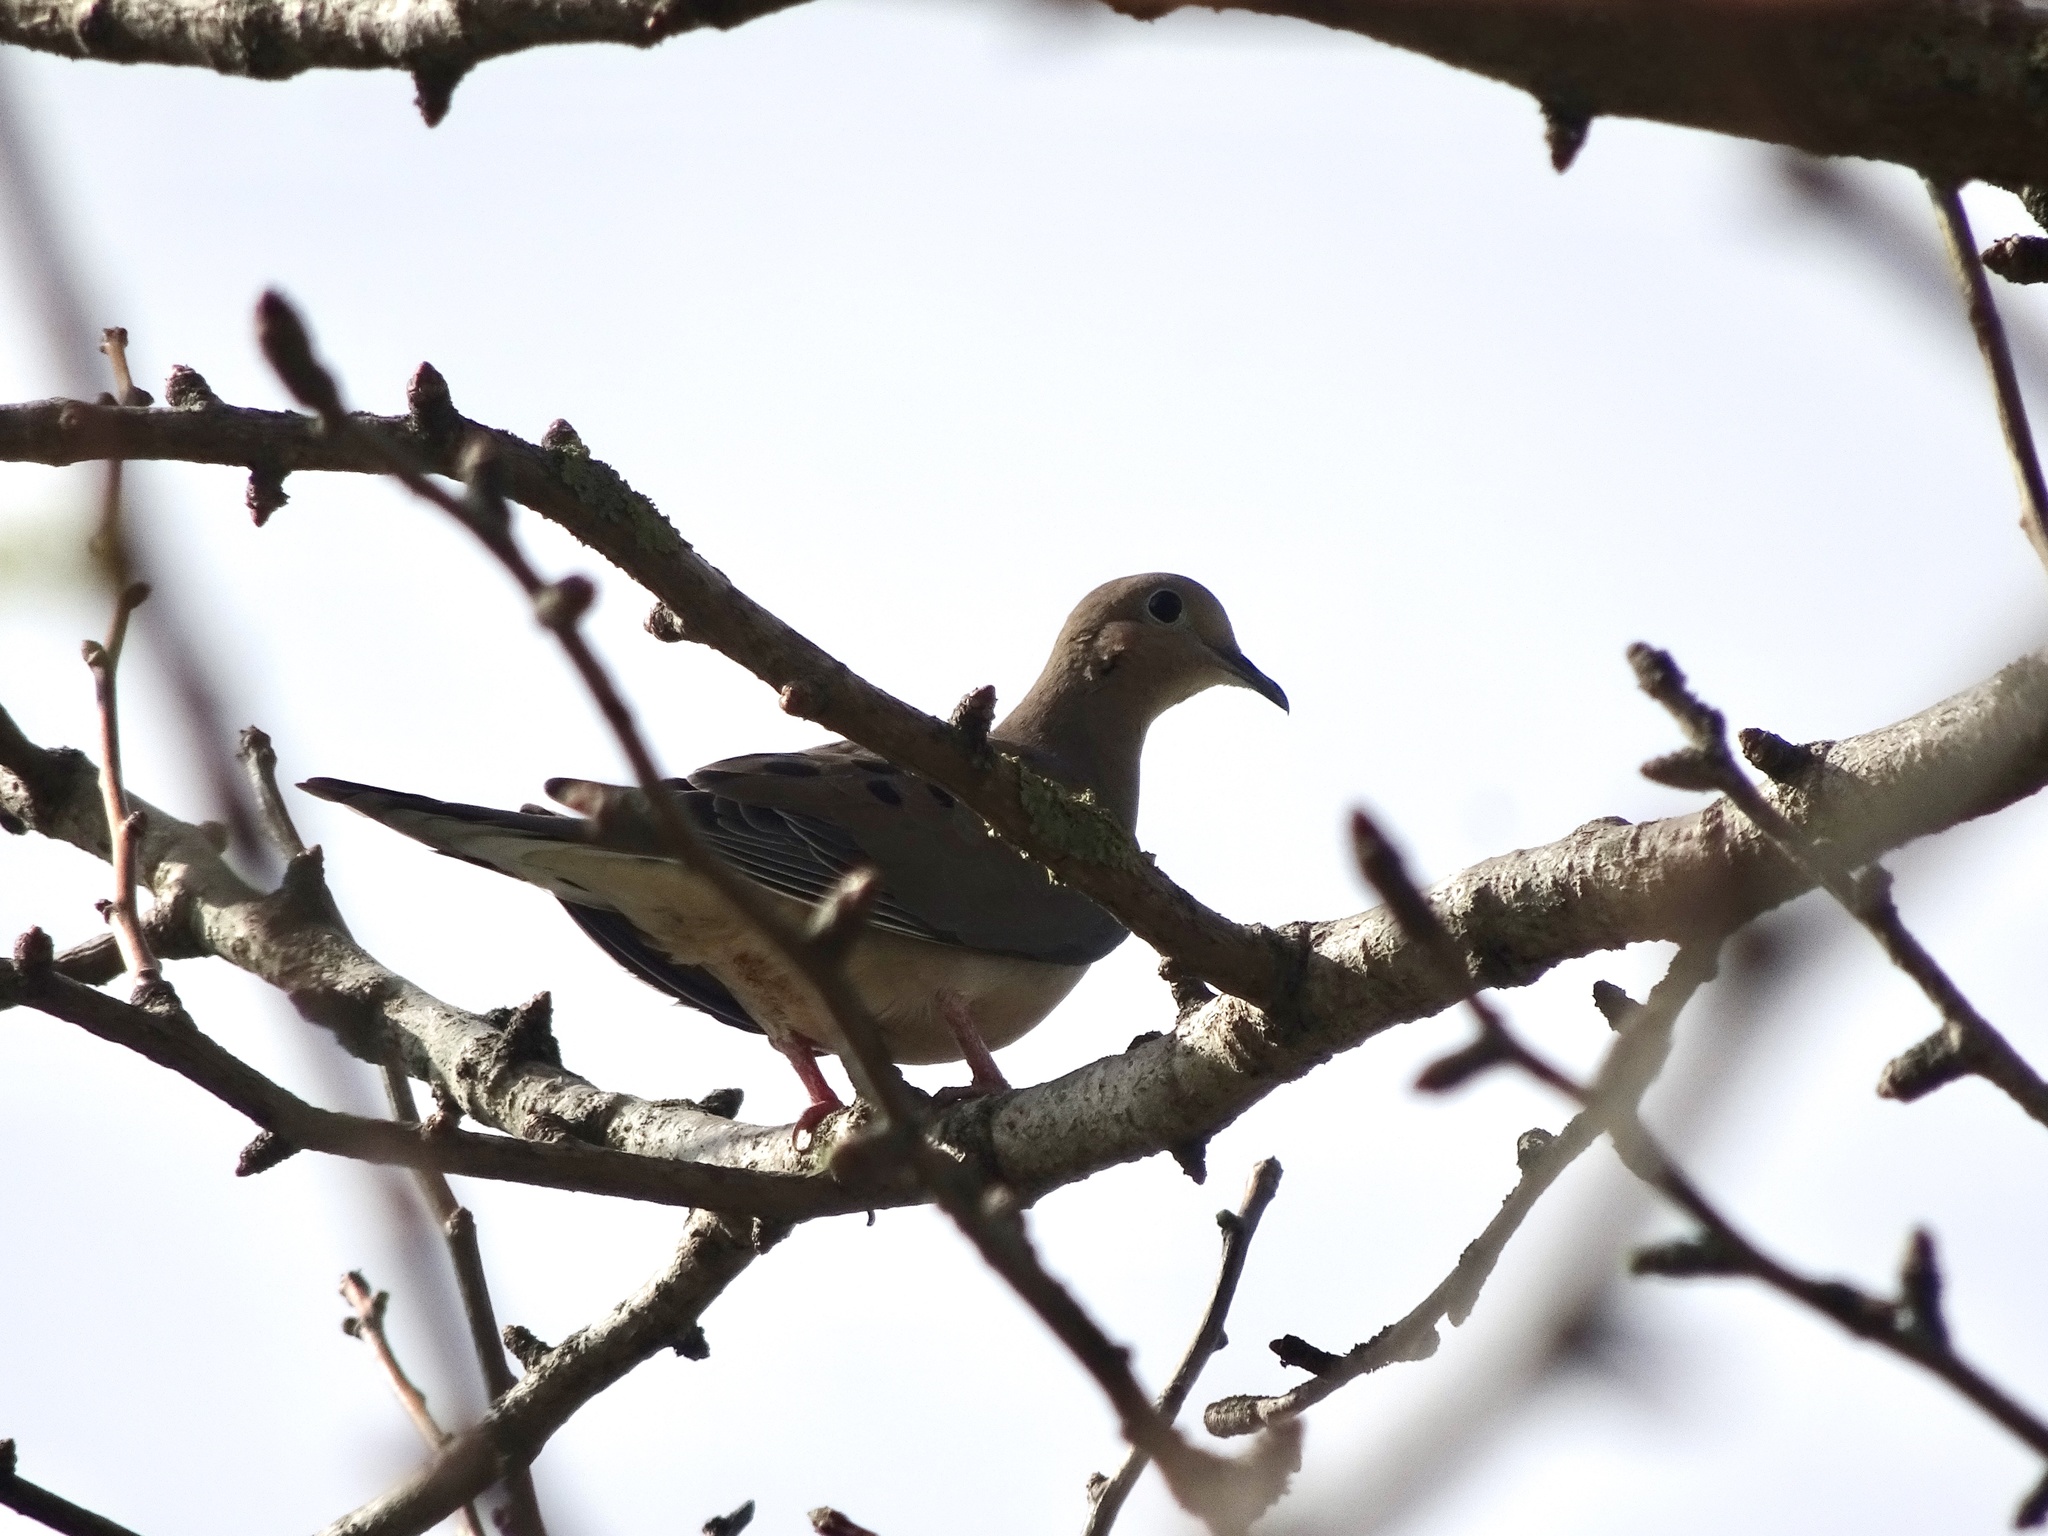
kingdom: Animalia
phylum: Chordata
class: Aves
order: Columbiformes
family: Columbidae
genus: Zenaida
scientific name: Zenaida macroura
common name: Mourning dove
